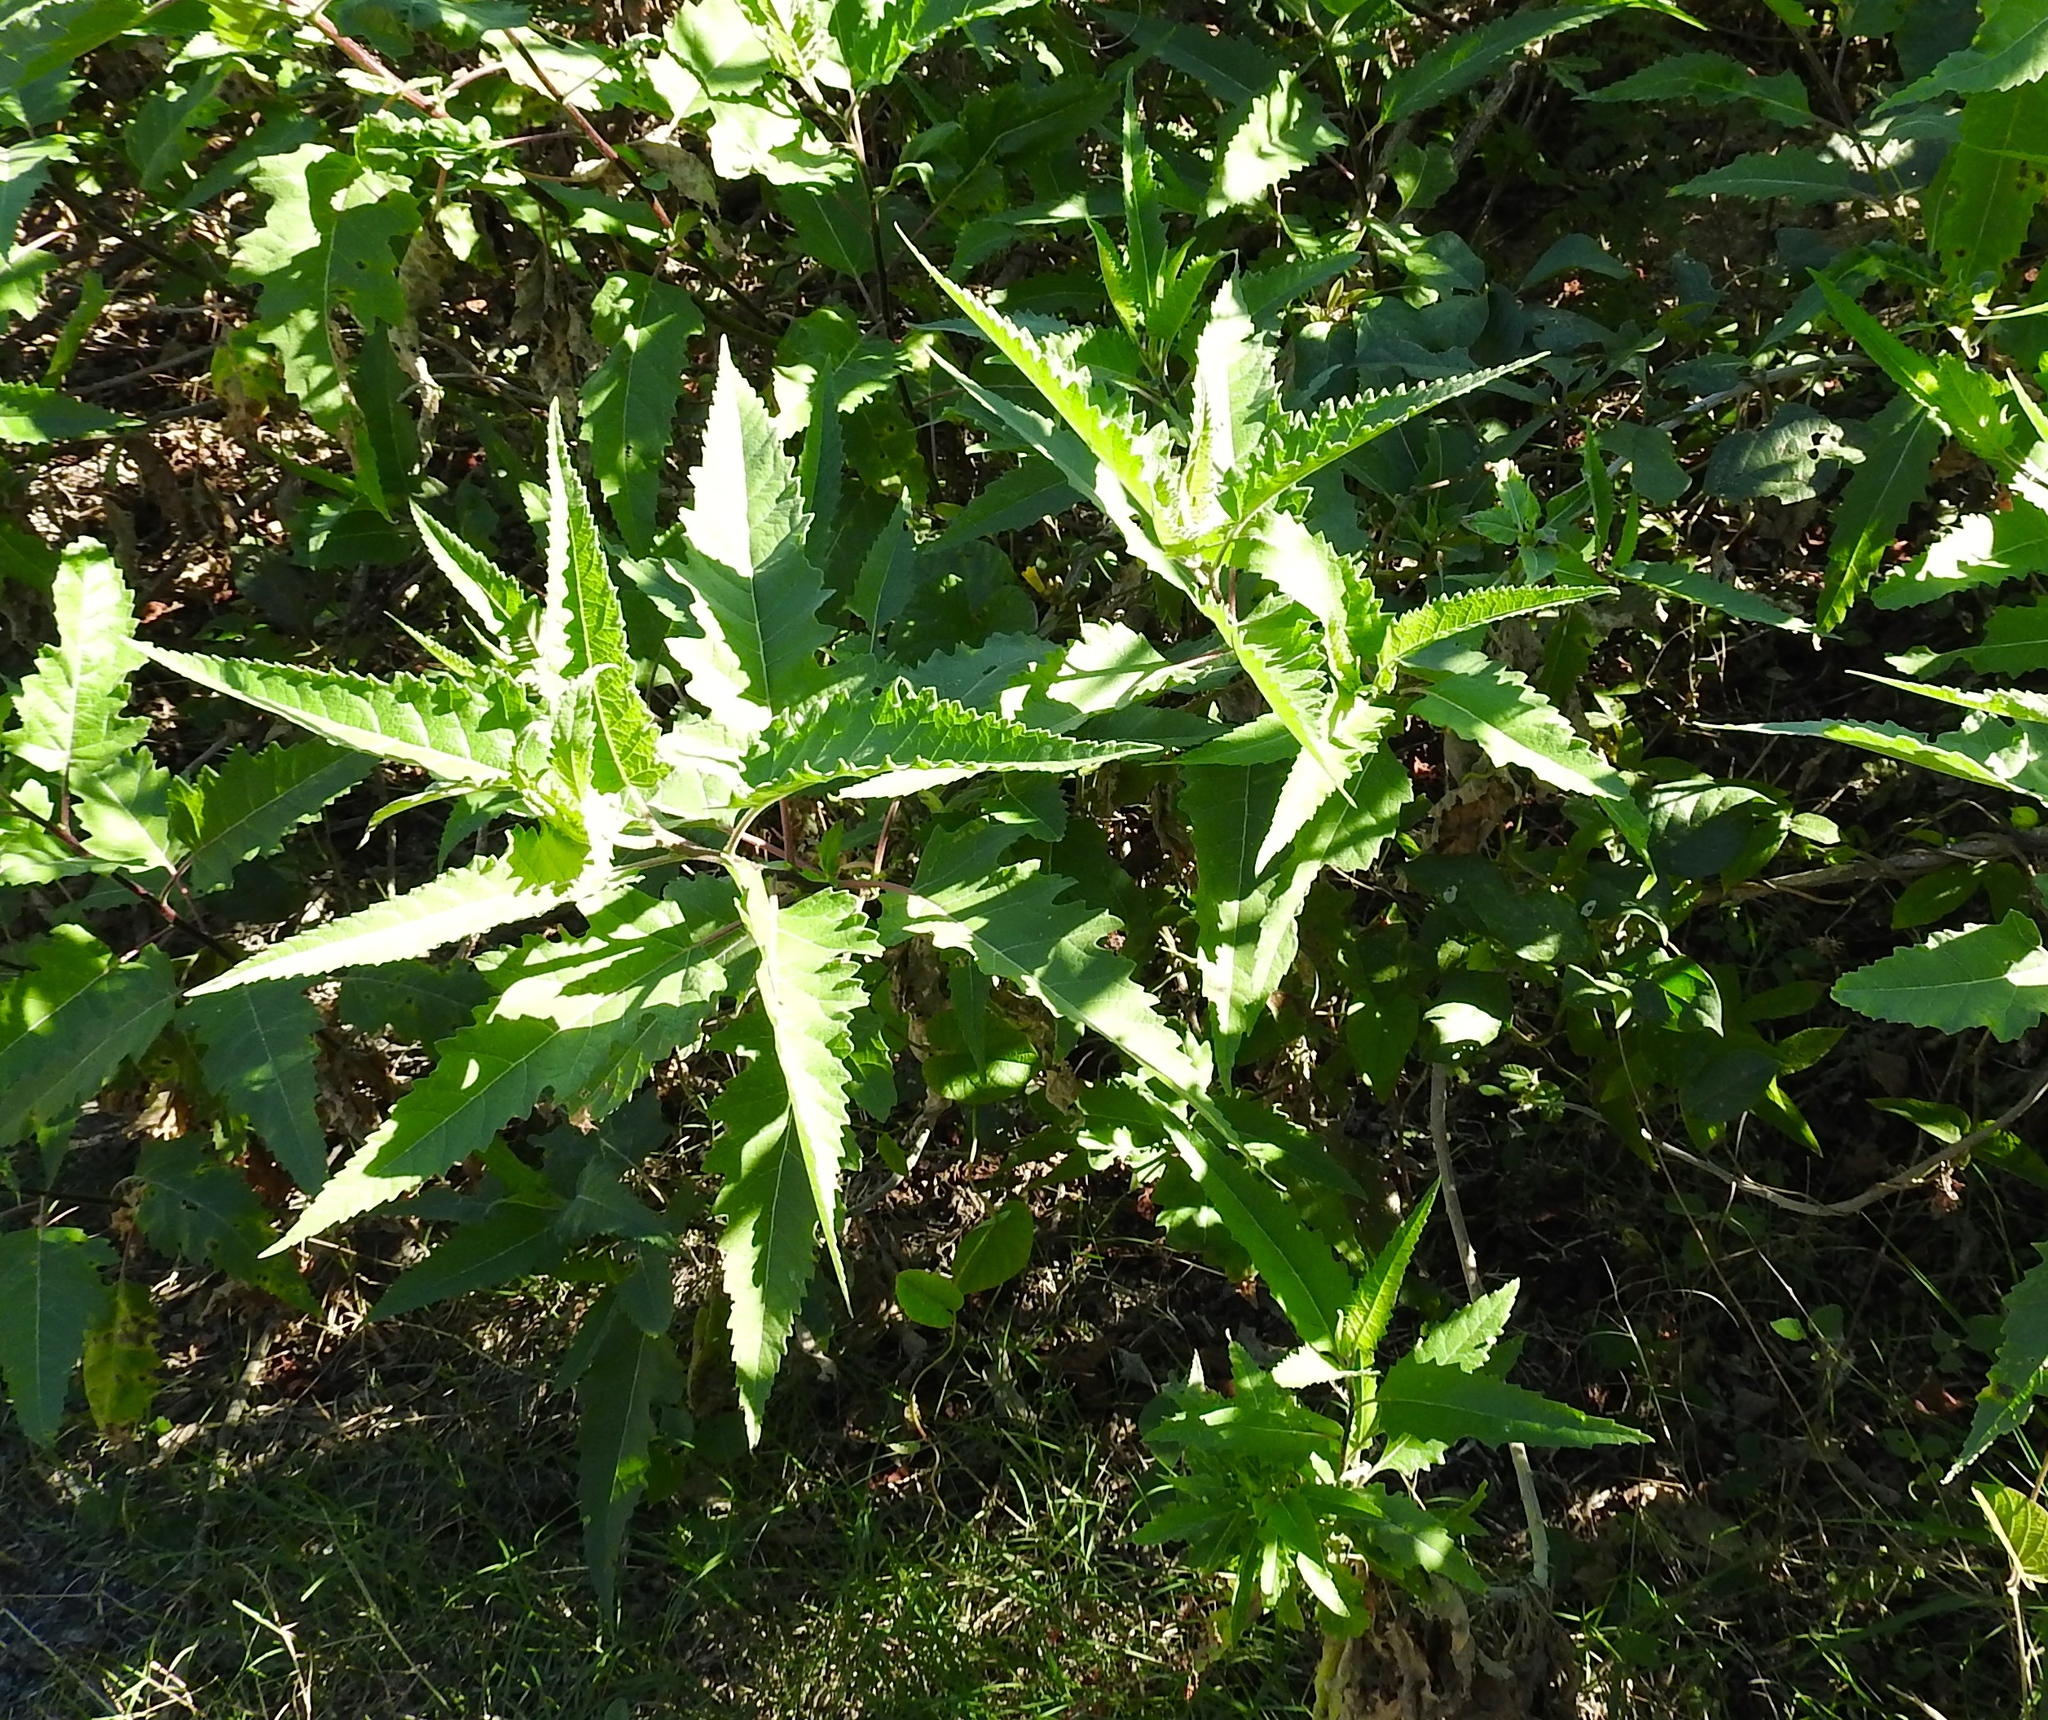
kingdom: Plantae
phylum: Tracheophyta
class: Magnoliopsida
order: Asterales
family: Asteraceae
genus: Ambrosia
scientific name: Ambrosia ambrosioides
